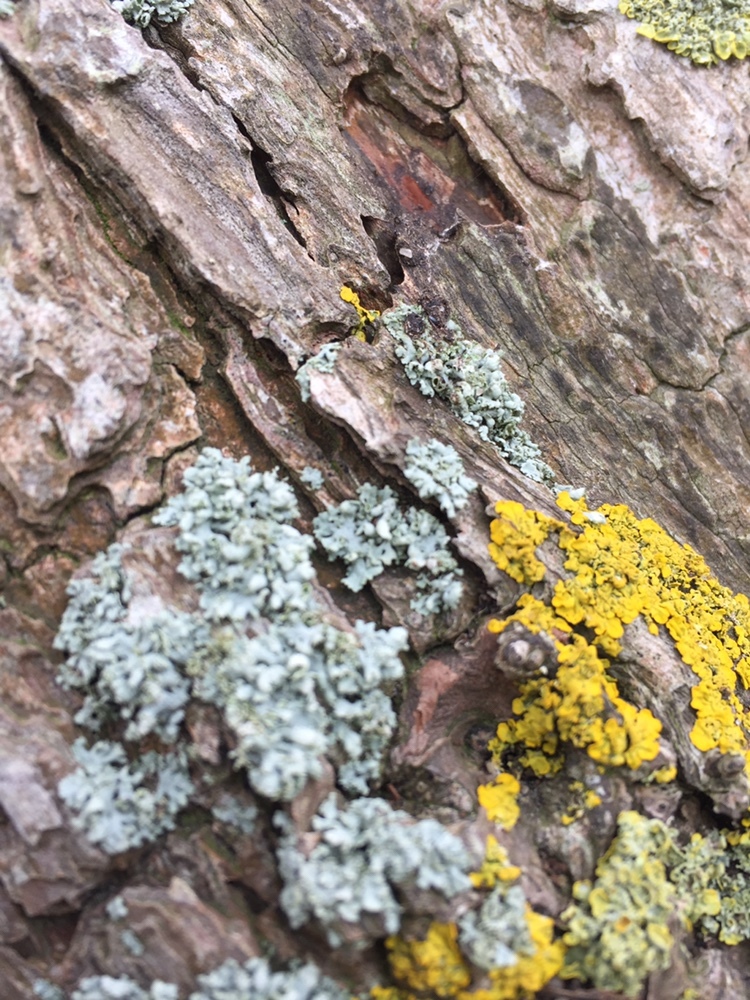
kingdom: Fungi
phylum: Ascomycota
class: Lecanoromycetes
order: Caliciales
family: Physciaceae
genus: Physcia
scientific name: Physcia adscendens
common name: Hooded rosette lichen
